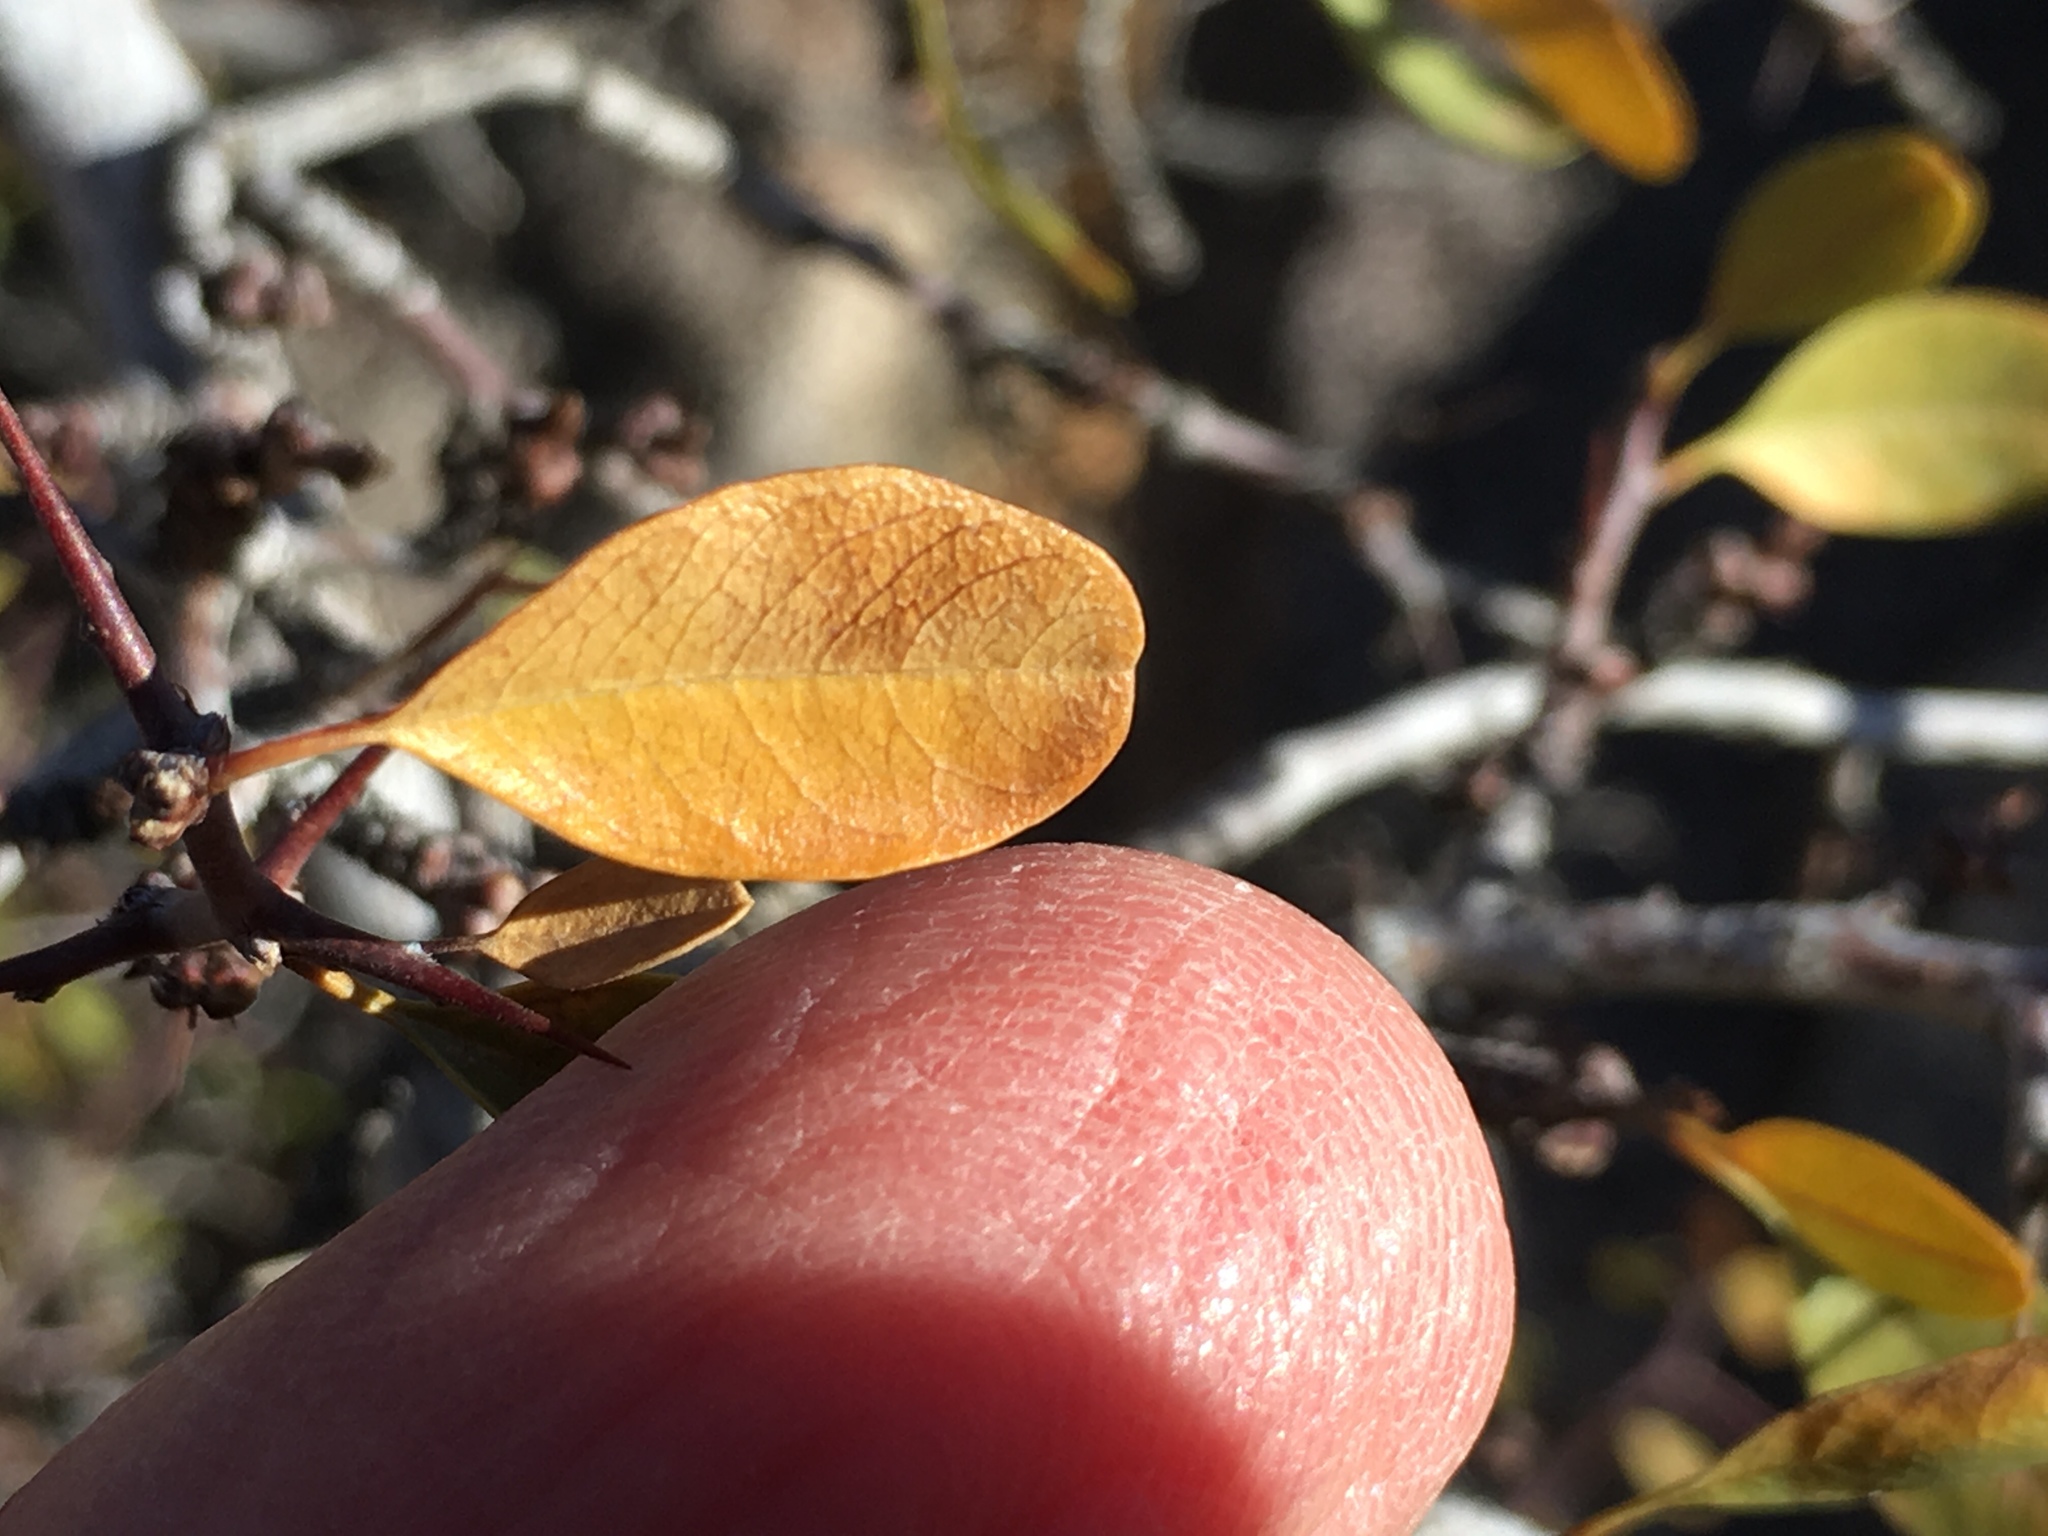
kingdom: Plantae
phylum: Tracheophyta
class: Magnoliopsida
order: Rosales
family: Rhamnaceae
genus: Pseudoziziphus
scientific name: Pseudoziziphus parryi
